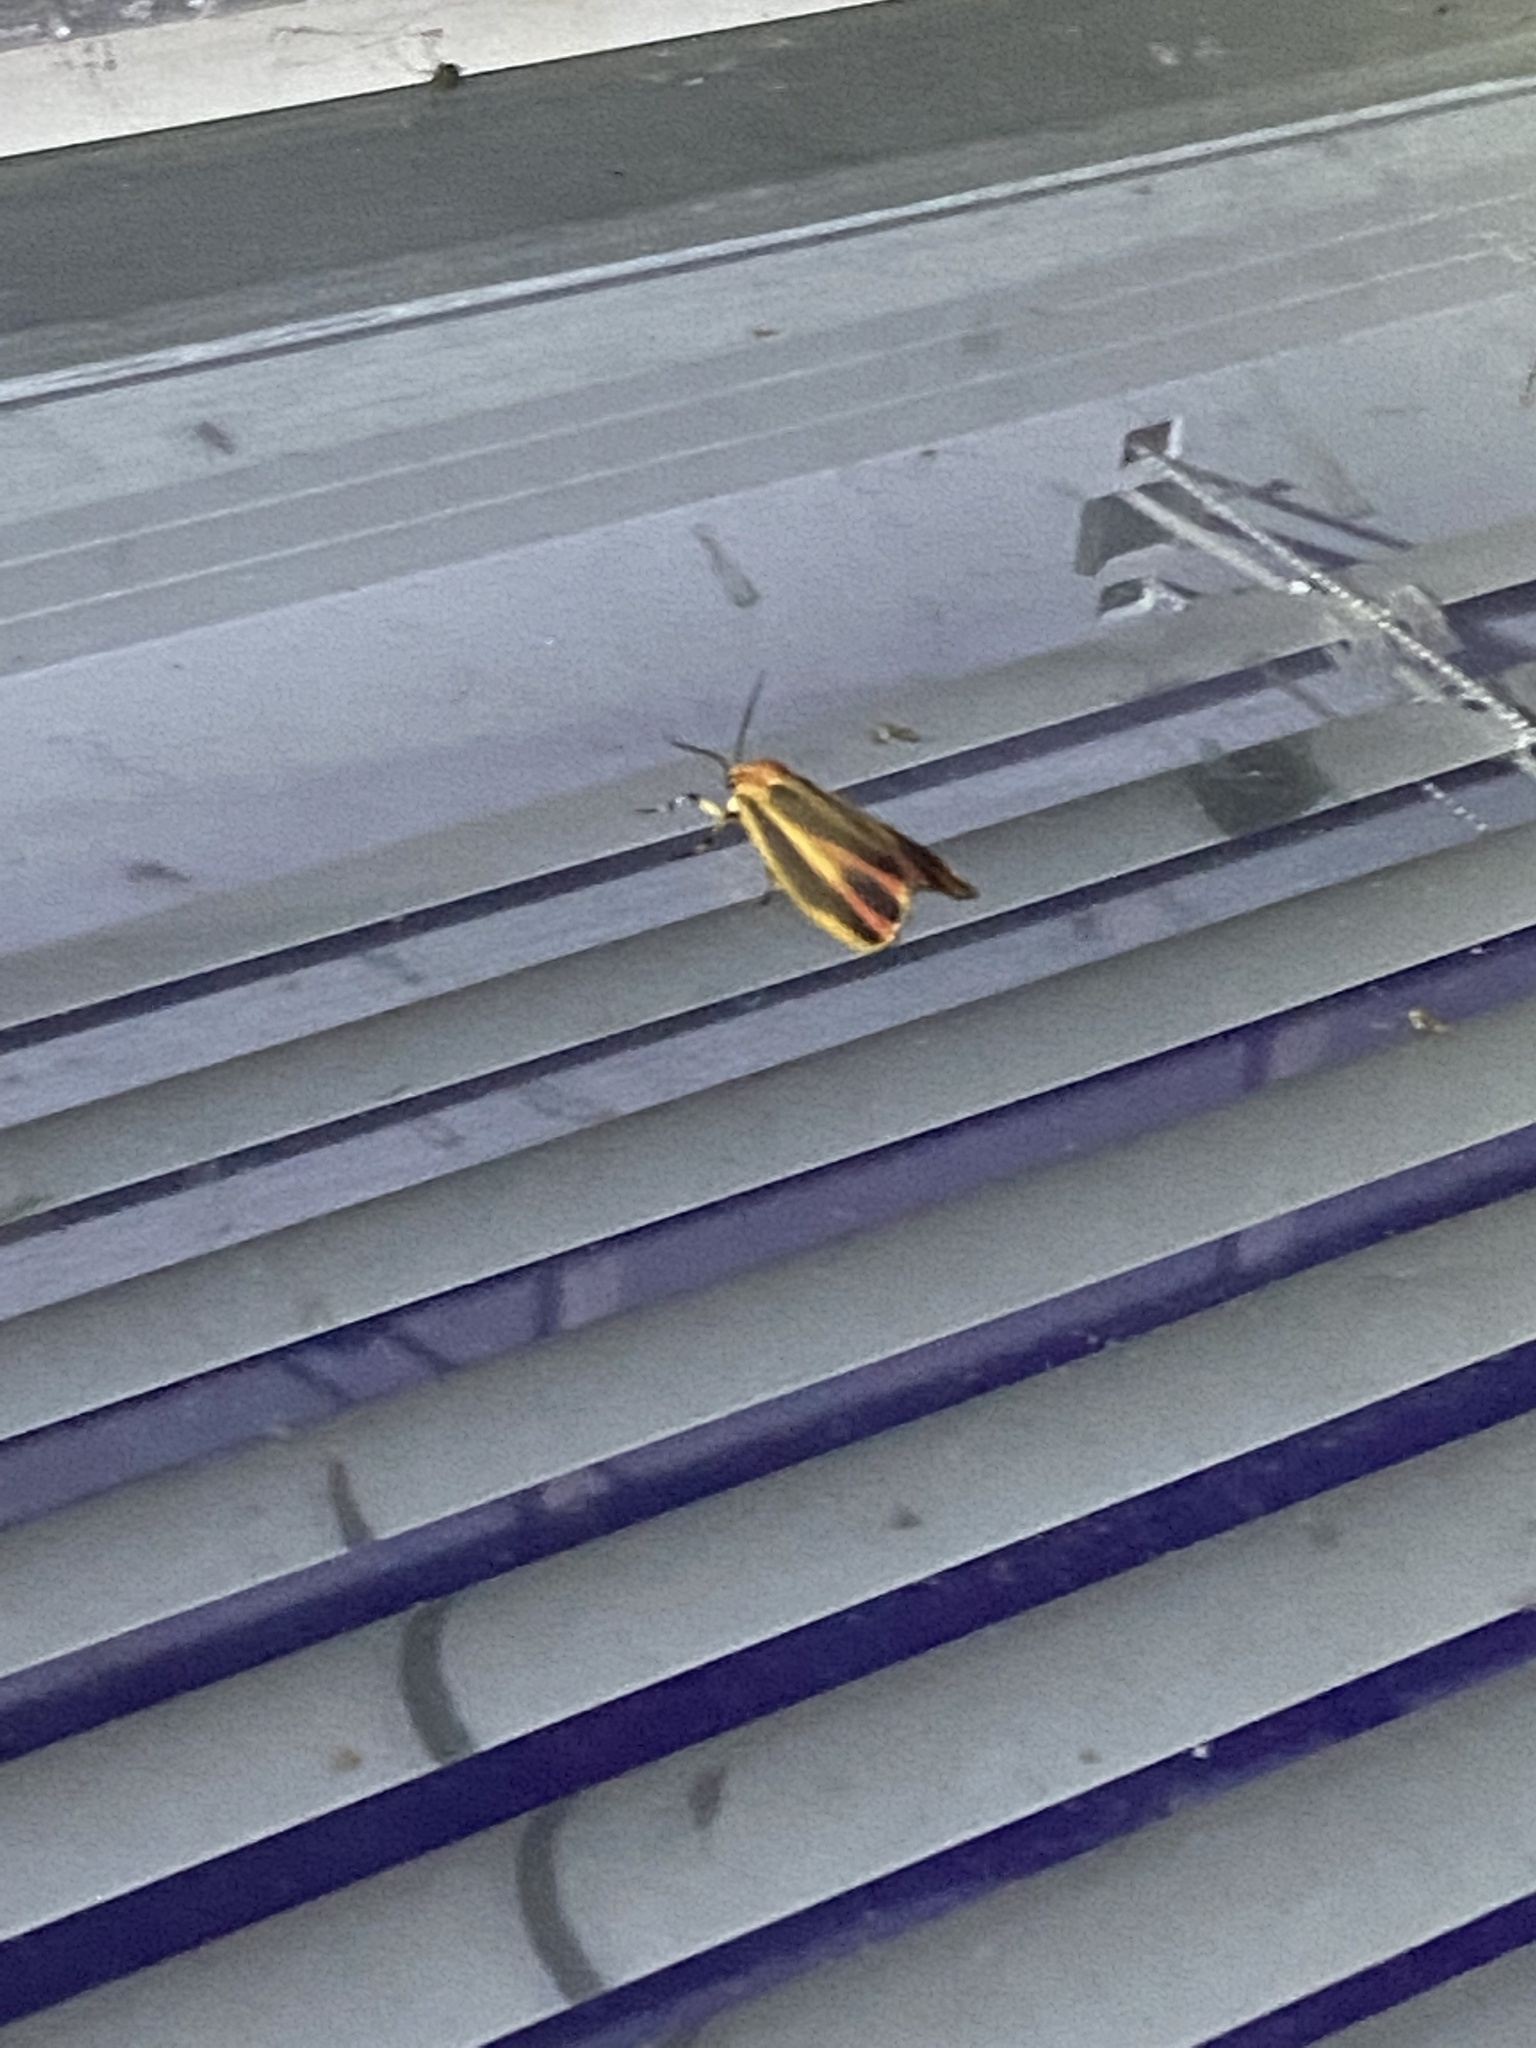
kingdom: Animalia
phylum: Arthropoda
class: Insecta
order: Lepidoptera
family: Erebidae
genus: Hypoprepia
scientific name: Hypoprepia fucosa
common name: Painted lichen moth
